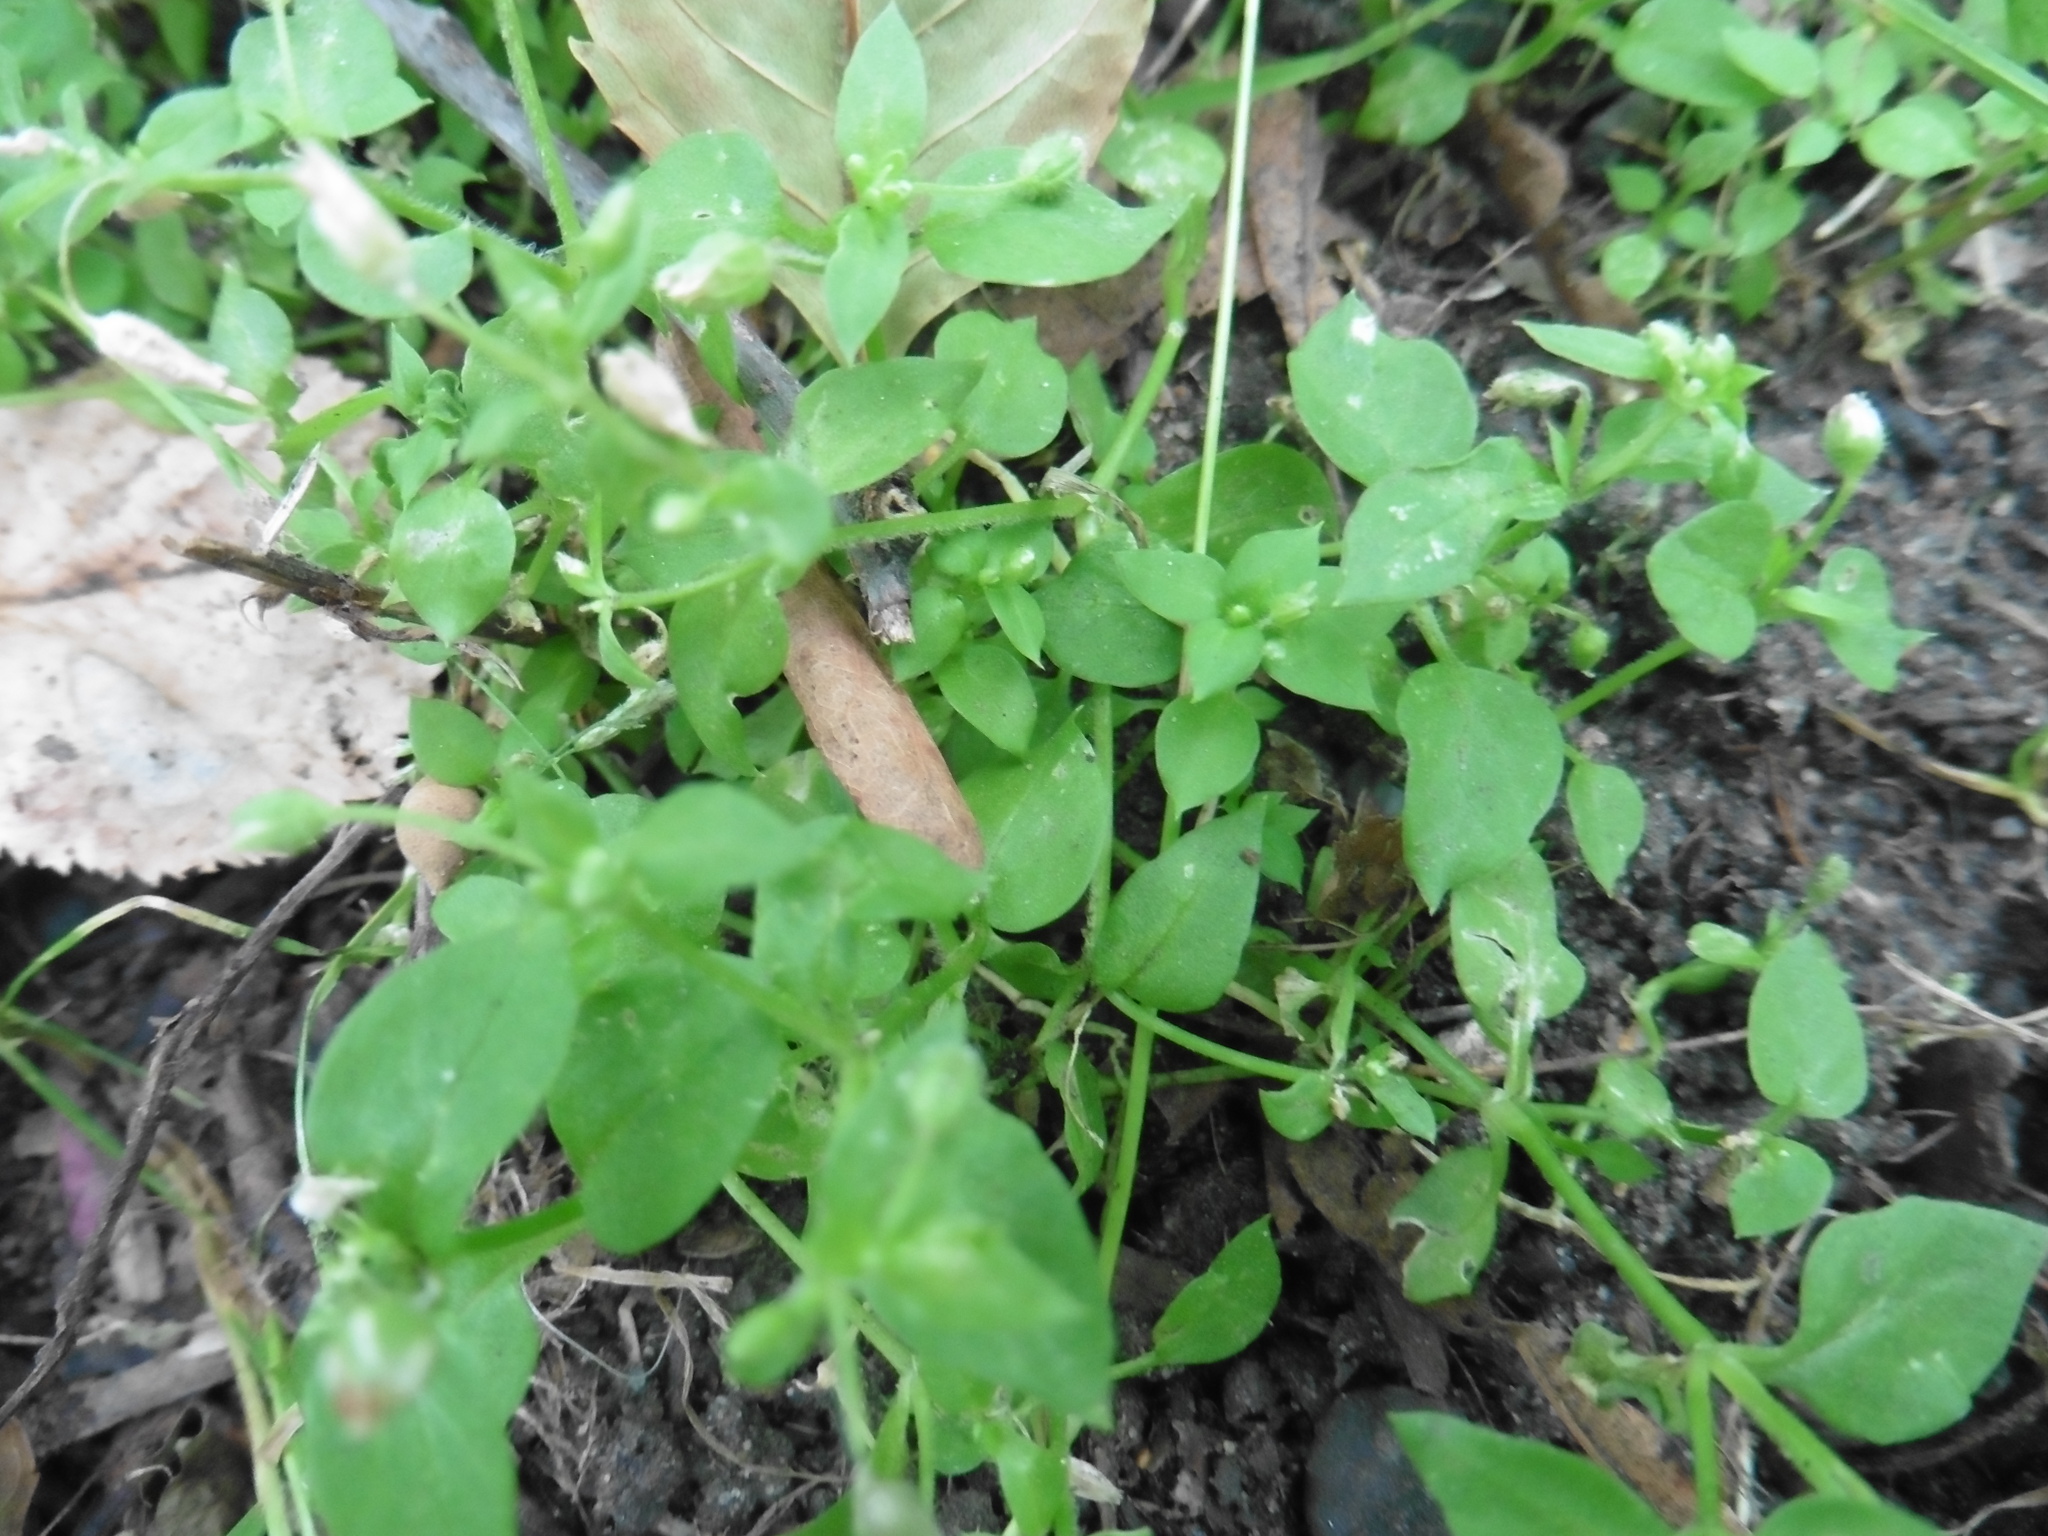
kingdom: Plantae
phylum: Tracheophyta
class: Magnoliopsida
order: Caryophyllales
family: Caryophyllaceae
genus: Stellaria
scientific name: Stellaria media
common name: Common chickweed
